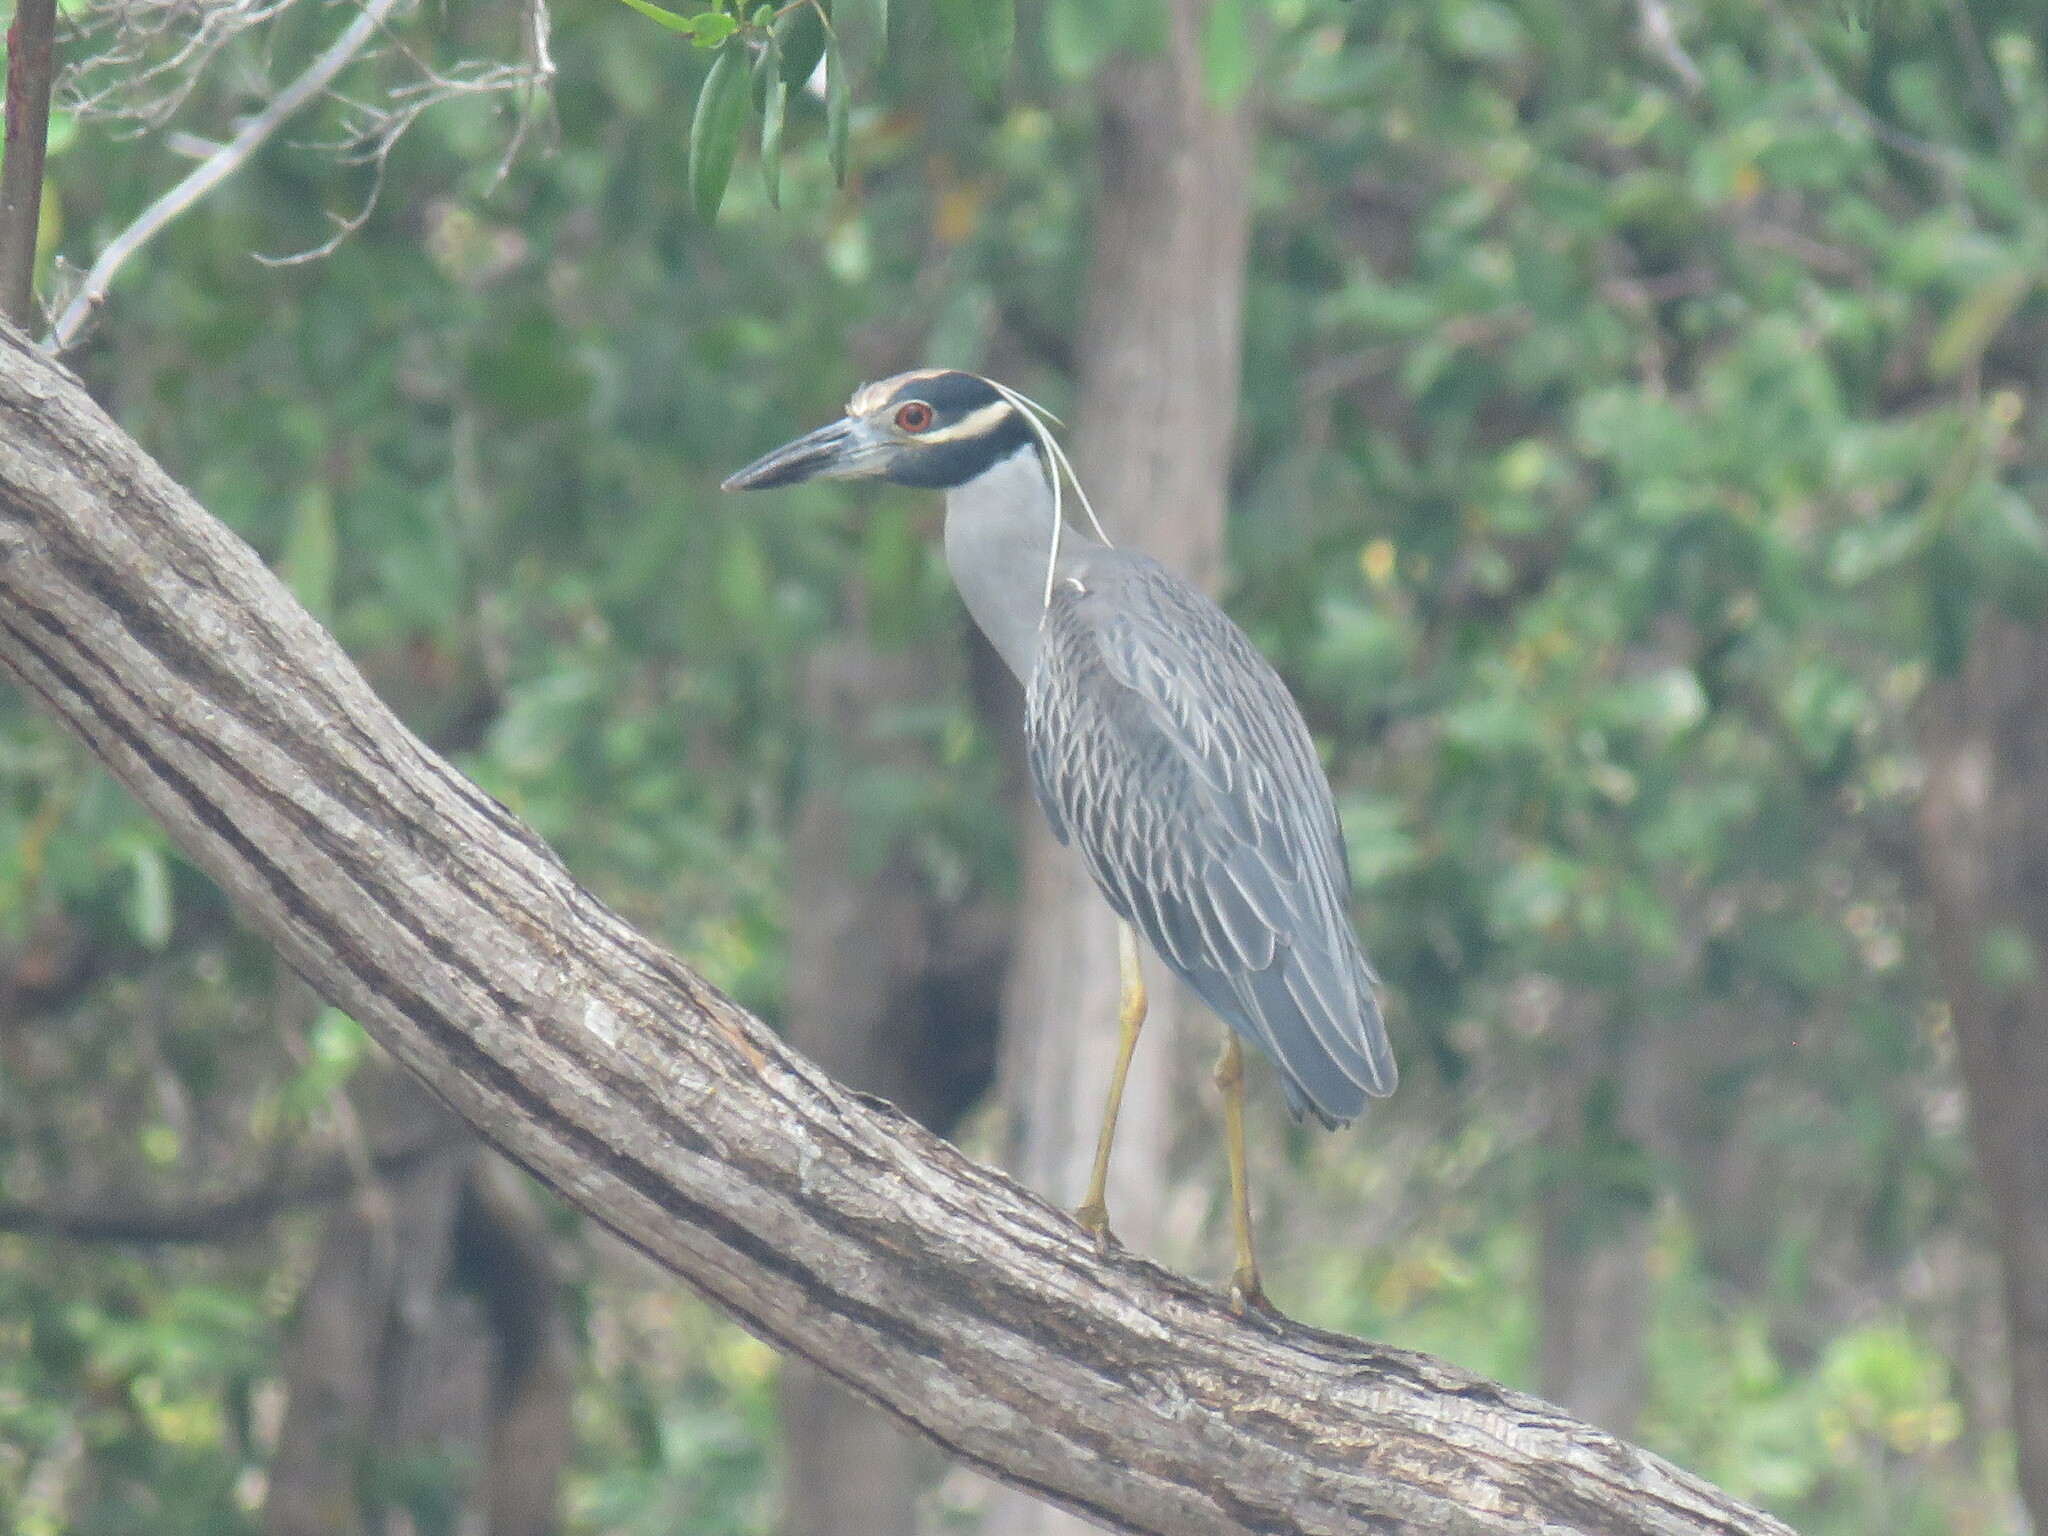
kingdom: Animalia
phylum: Chordata
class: Aves
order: Pelecaniformes
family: Ardeidae
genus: Nyctanassa
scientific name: Nyctanassa violacea
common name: Yellow-crowned night heron
